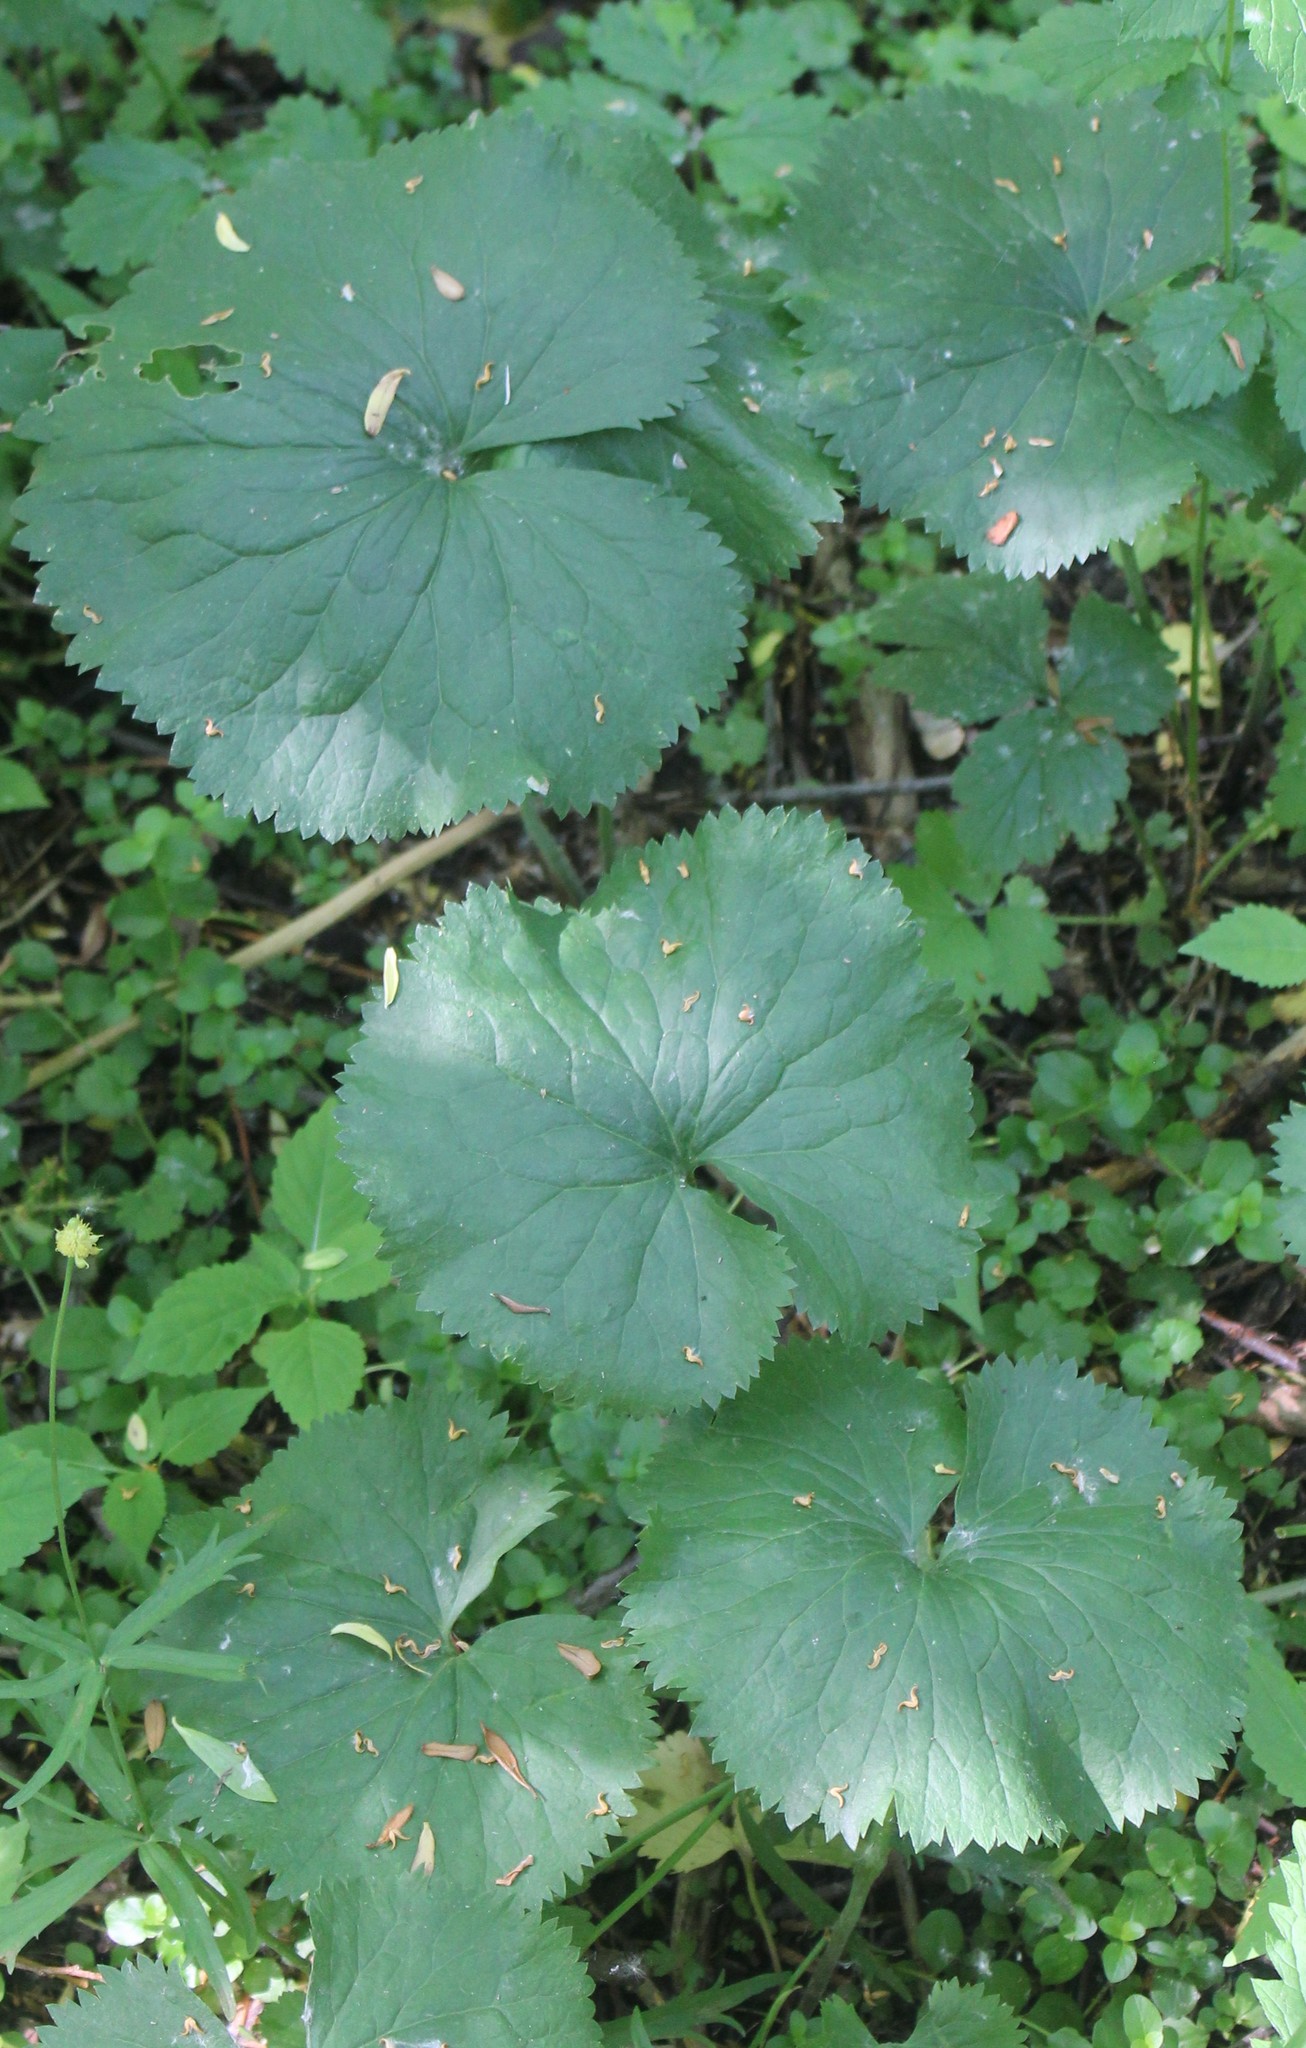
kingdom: Plantae
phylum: Tracheophyta
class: Magnoliopsida
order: Ranunculales
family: Ranunculaceae
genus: Ranunculus
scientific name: Ranunculus cassubicus
